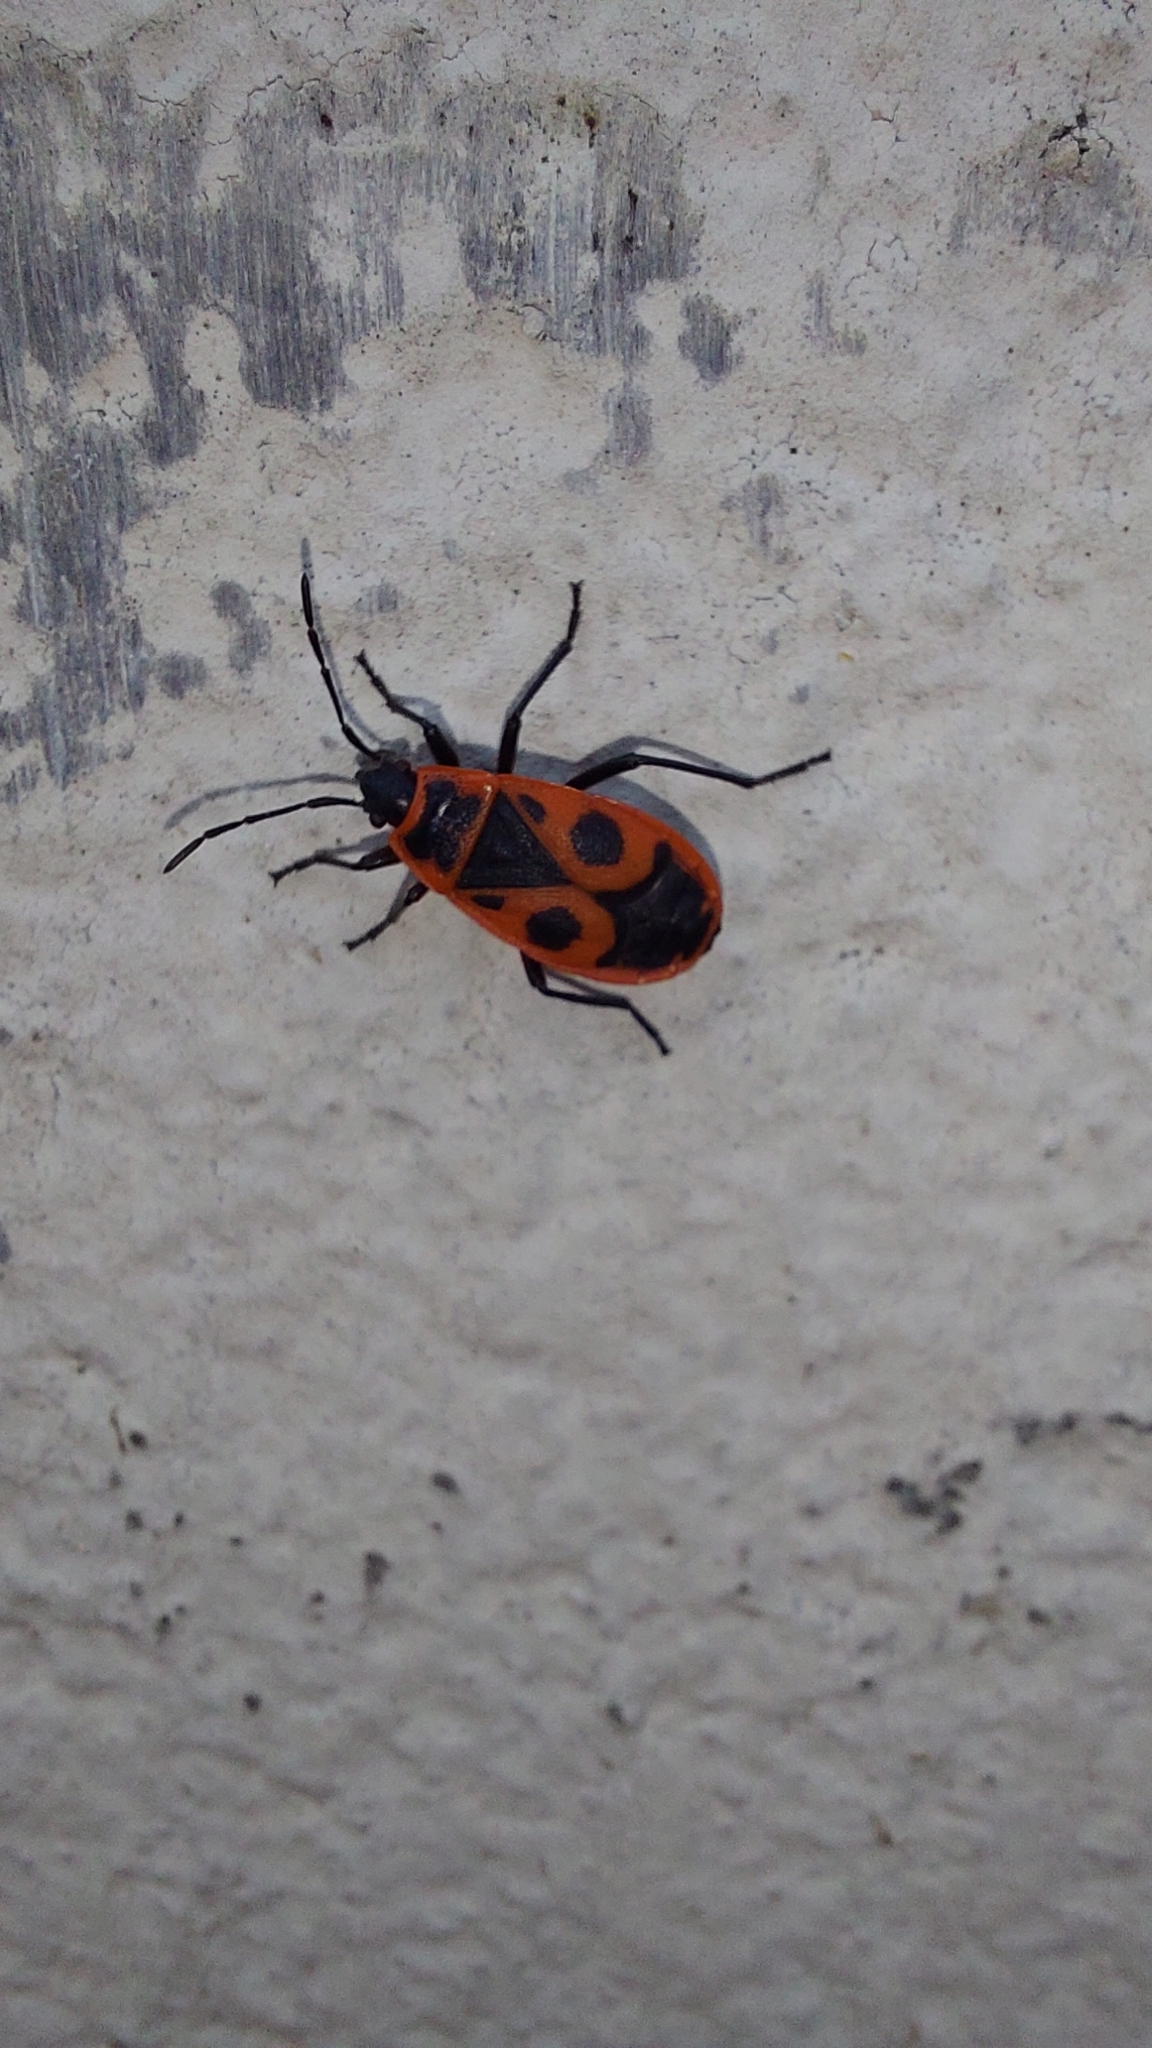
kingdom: Animalia
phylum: Arthropoda
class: Insecta
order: Hemiptera
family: Pyrrhocoridae
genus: Pyrrhocoris
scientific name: Pyrrhocoris apterus
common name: Firebug
